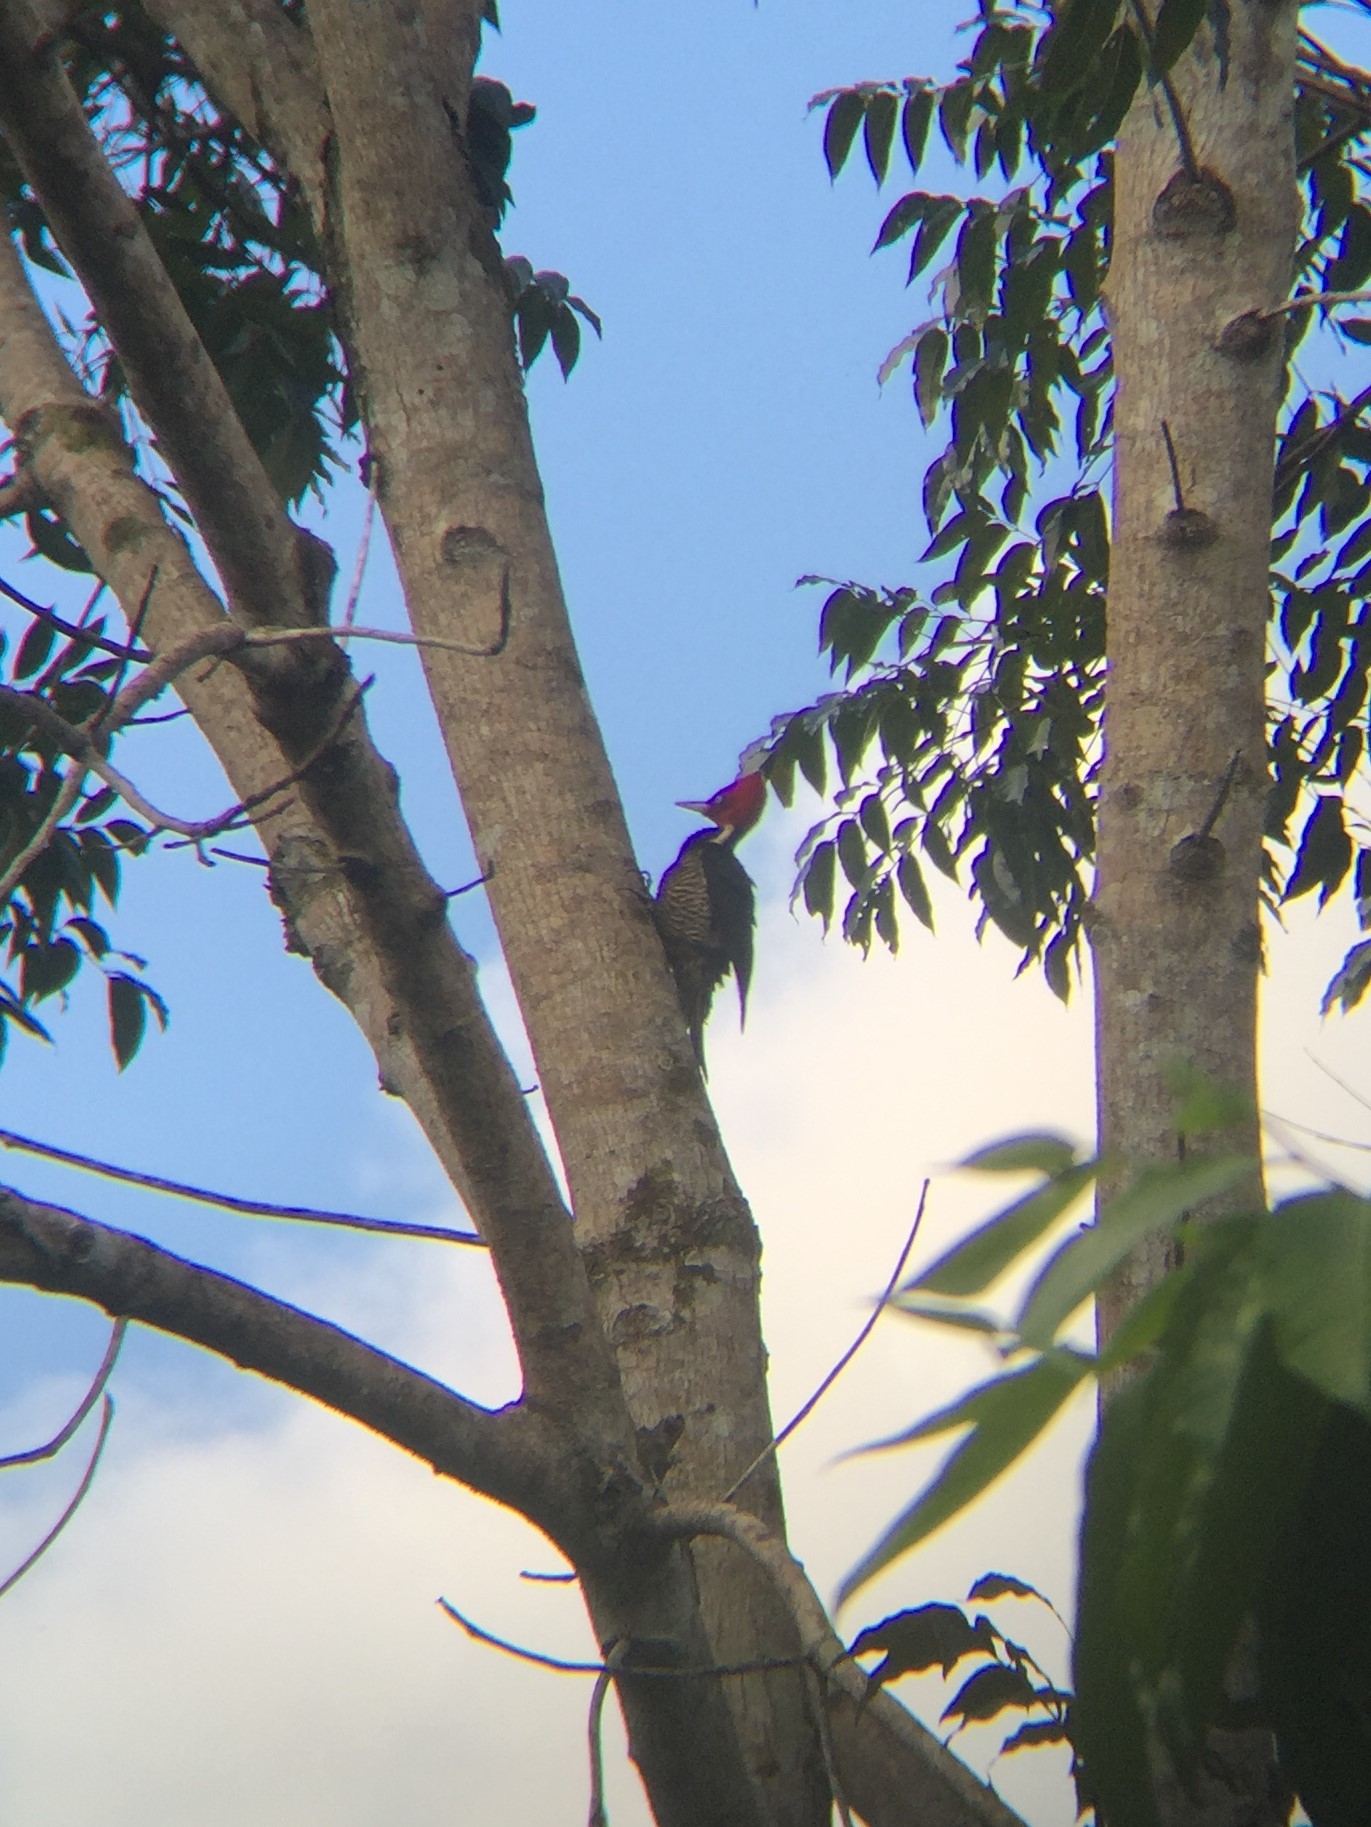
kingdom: Animalia
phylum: Chordata
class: Aves
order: Piciformes
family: Picidae
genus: Campephilus
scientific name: Campephilus guatemalensis
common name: Pale-billed woodpecker
